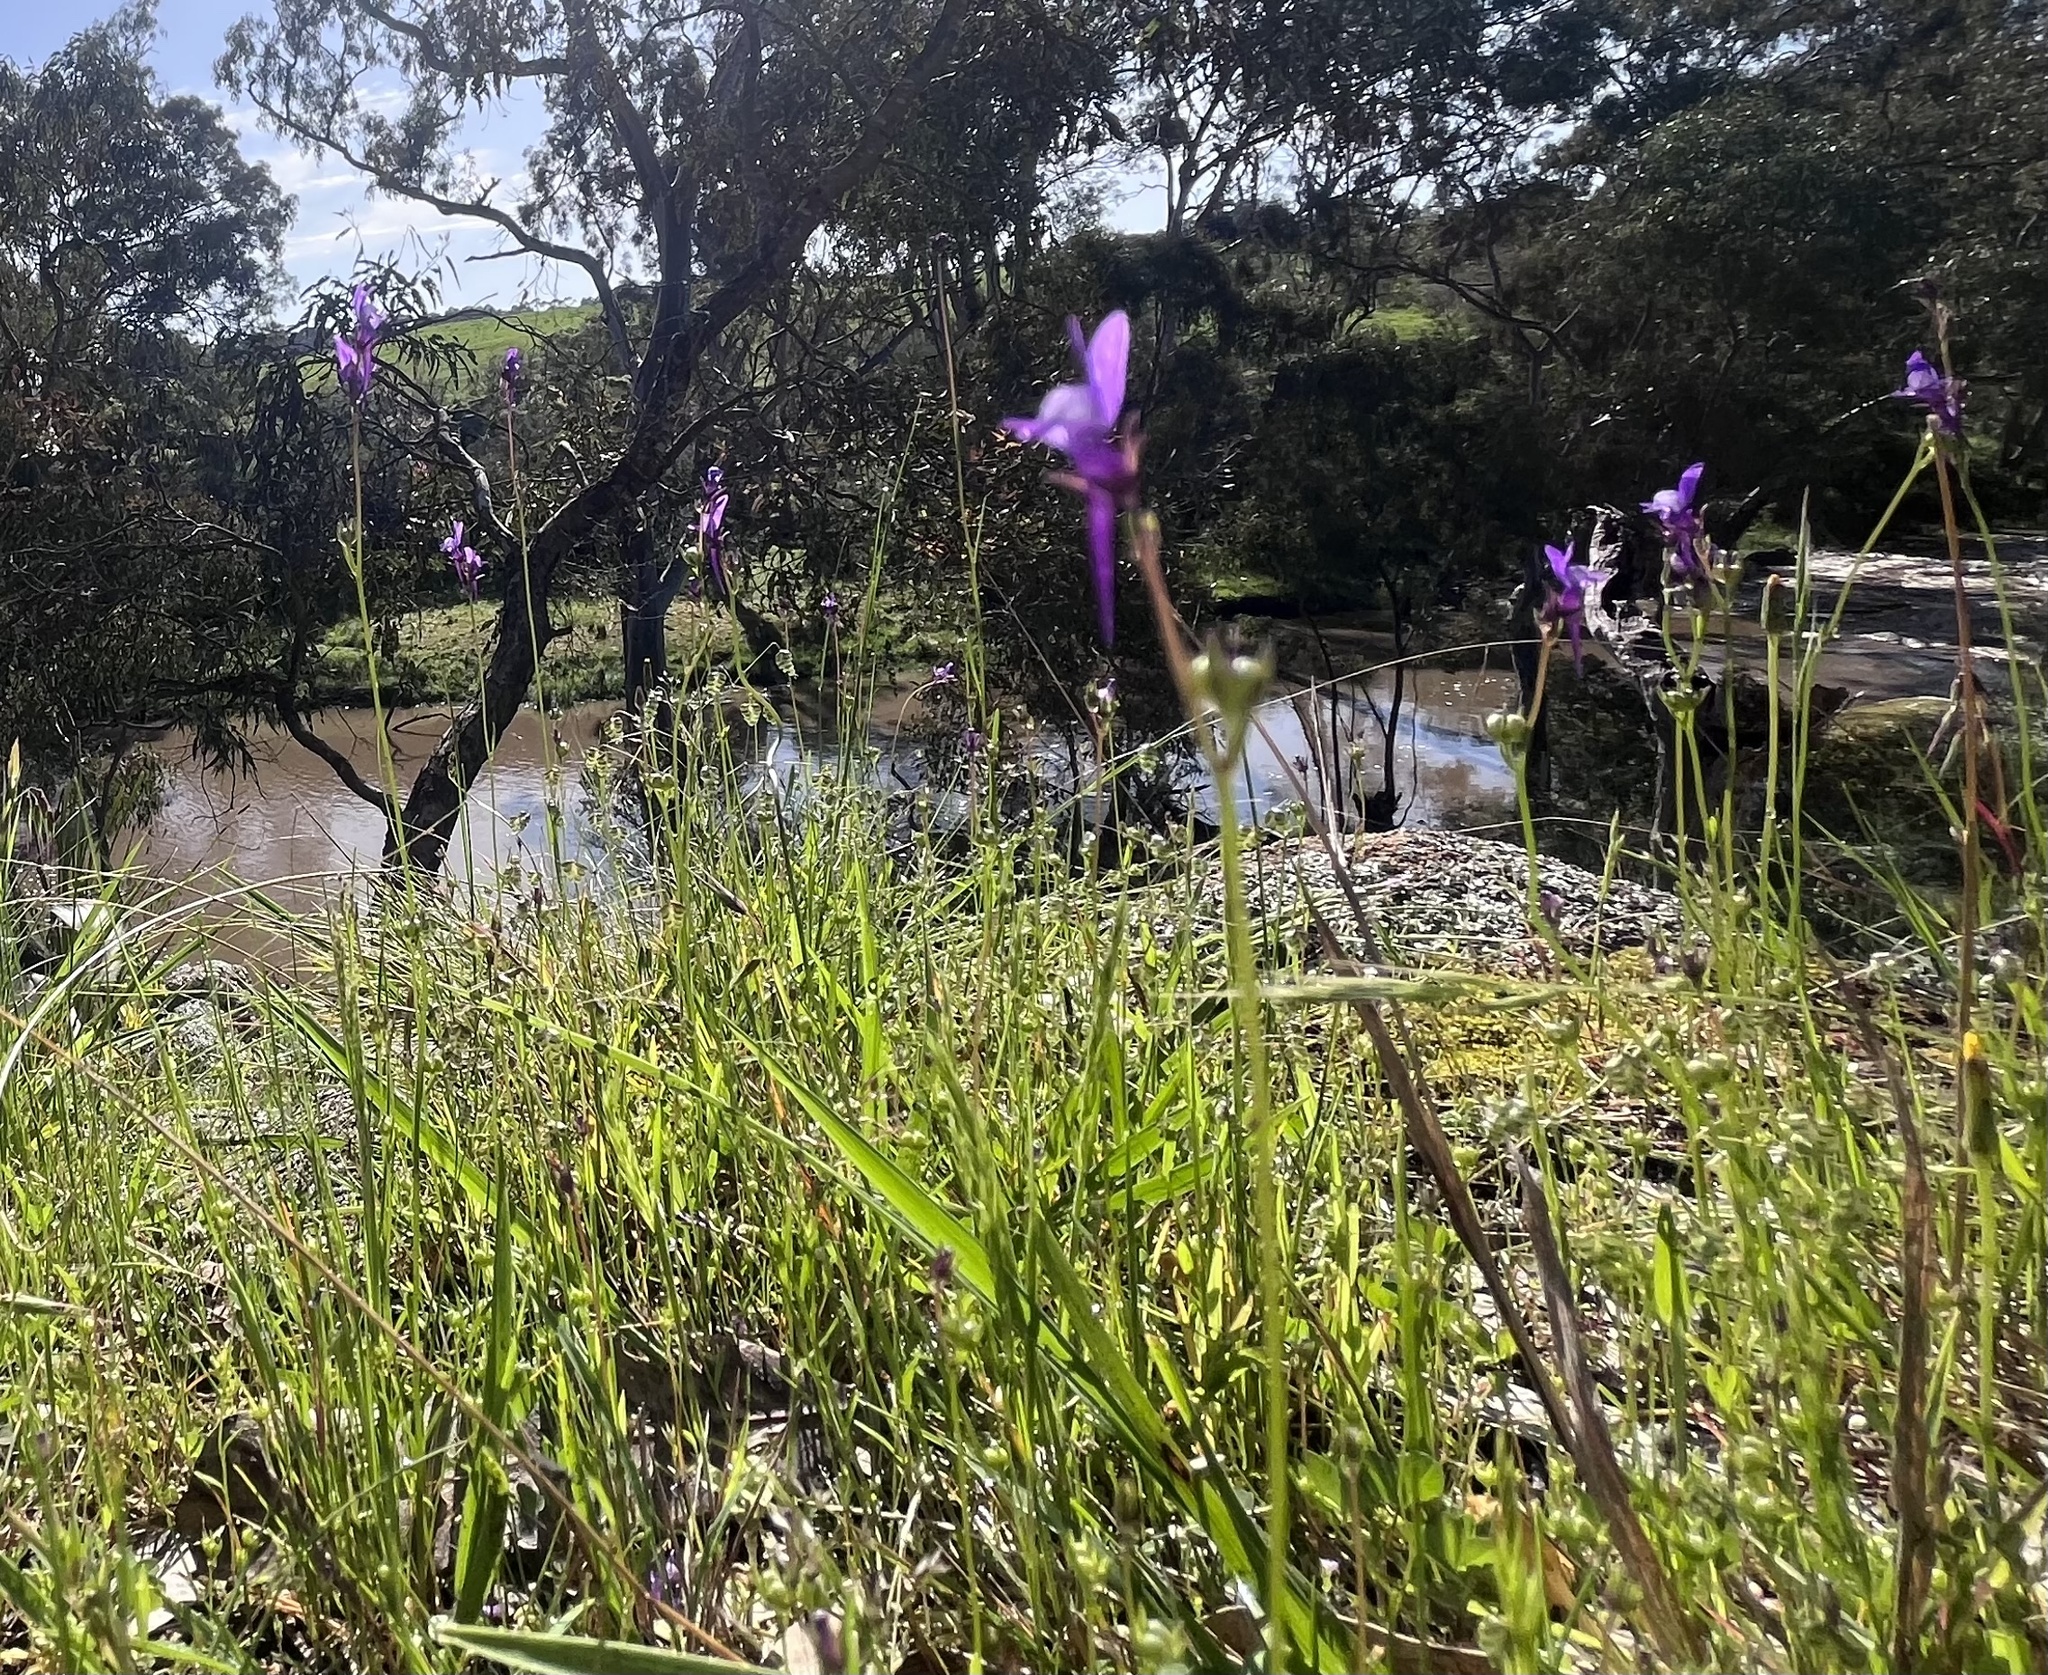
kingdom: Plantae
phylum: Tracheophyta
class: Magnoliopsida
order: Lamiales
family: Plantaginaceae
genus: Linaria
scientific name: Linaria pelisseriana
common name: Jersey toadflax
